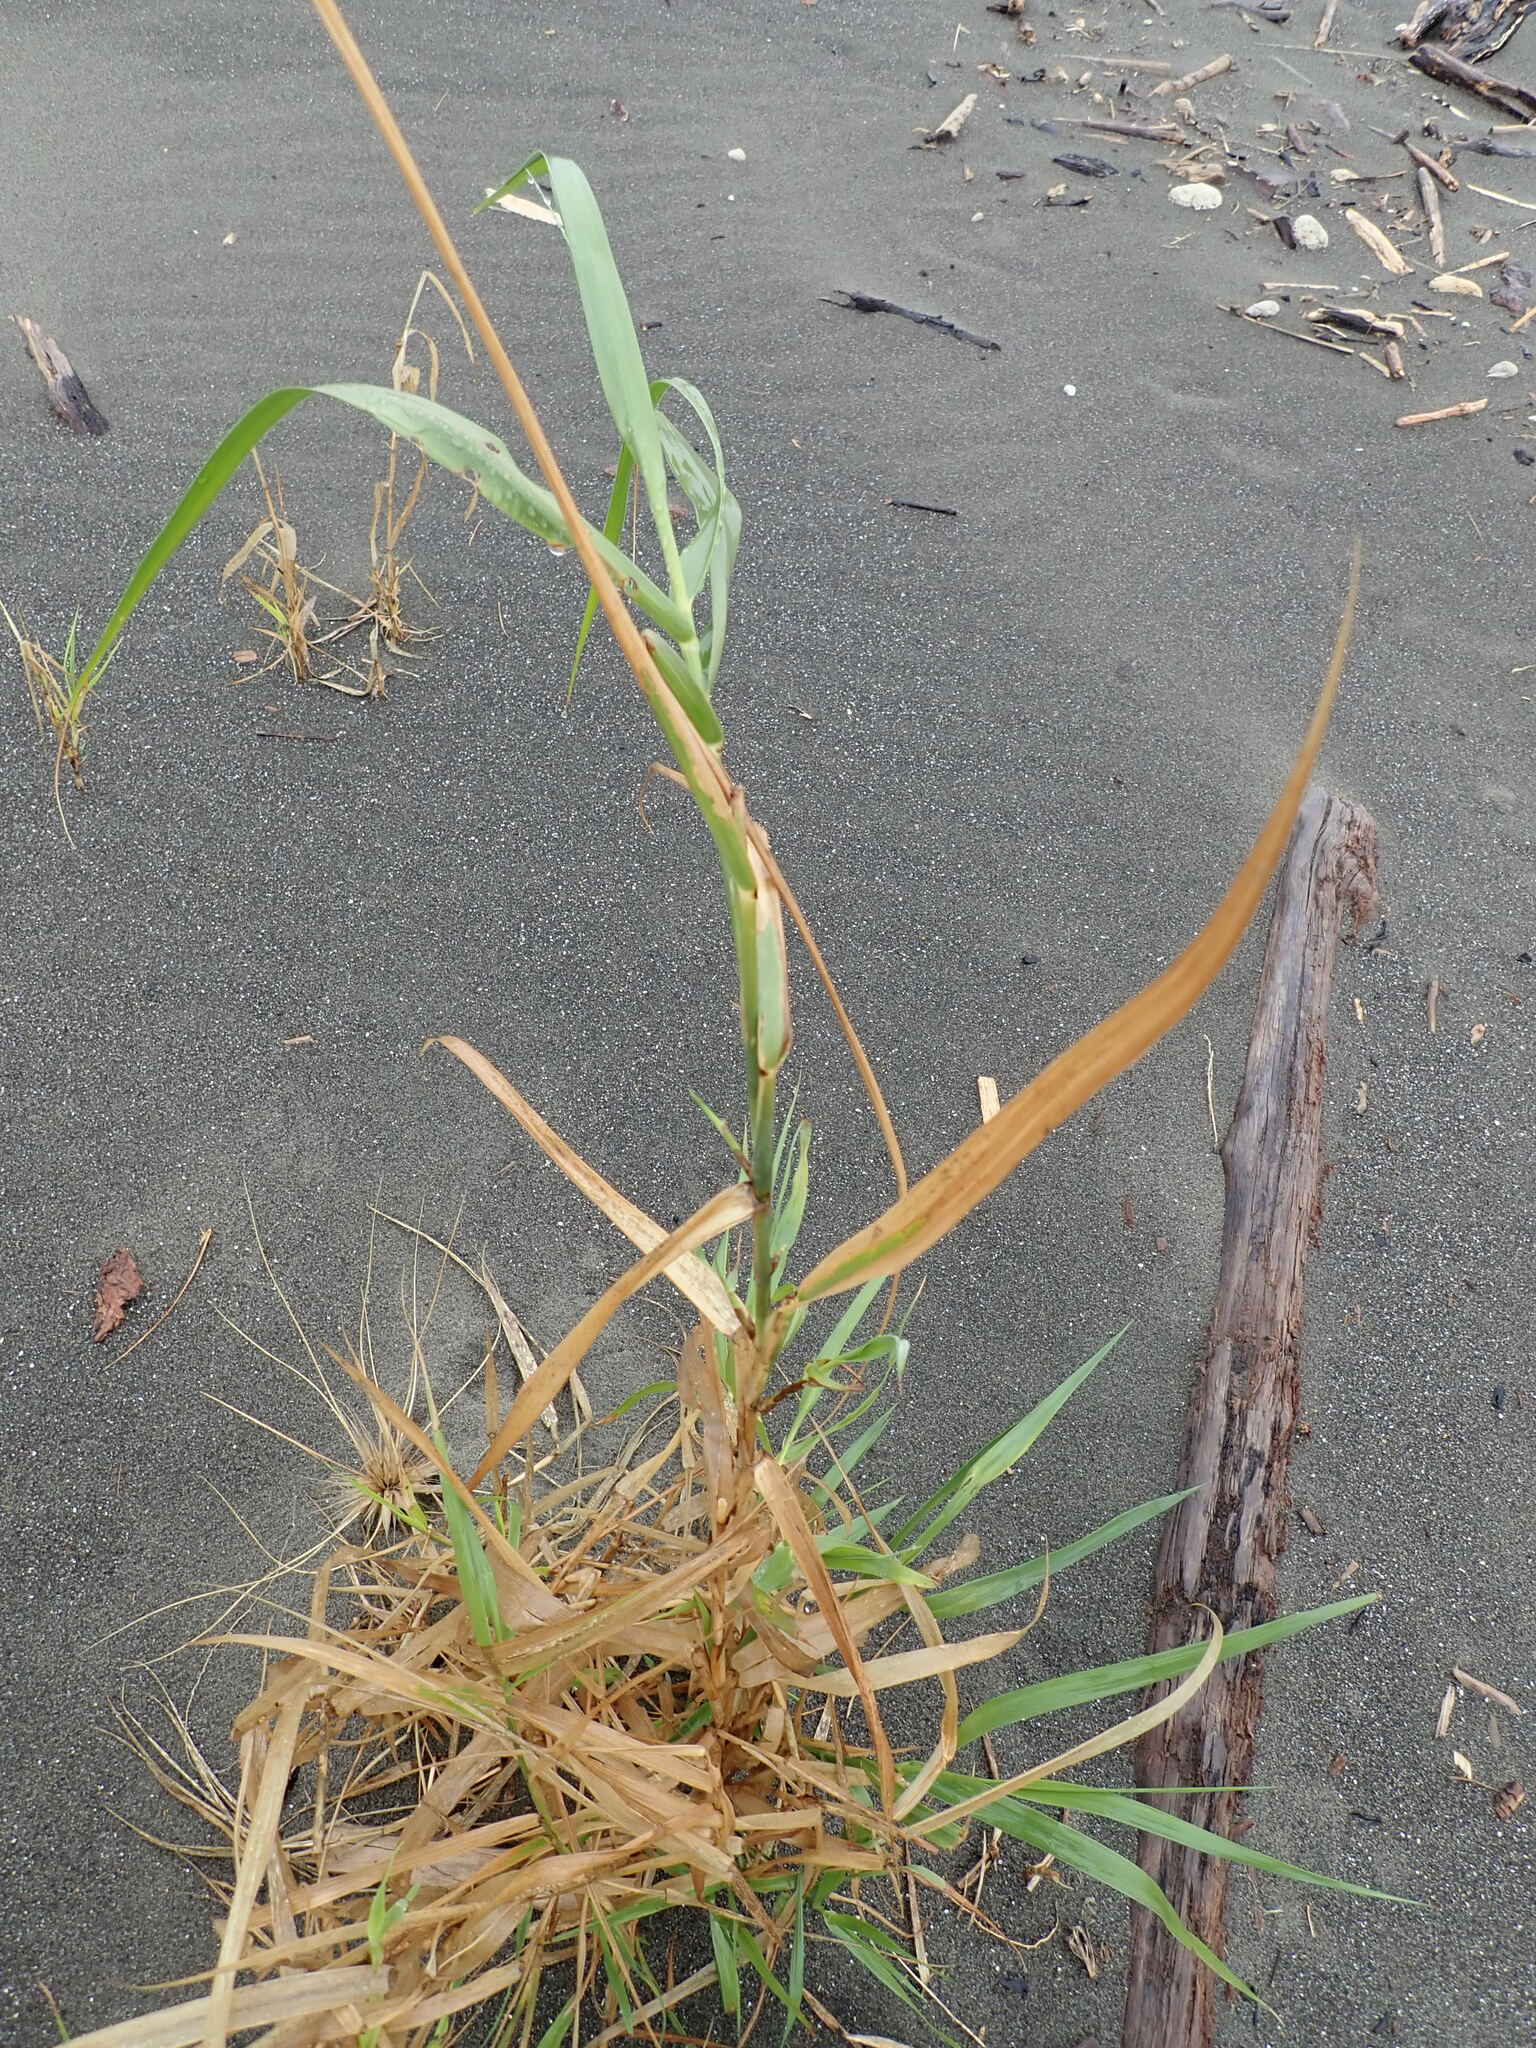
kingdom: Plantae
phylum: Tracheophyta
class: Liliopsida
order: Poales
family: Poaceae
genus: Phragmites
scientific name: Phragmites karka
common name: Tropical reed
